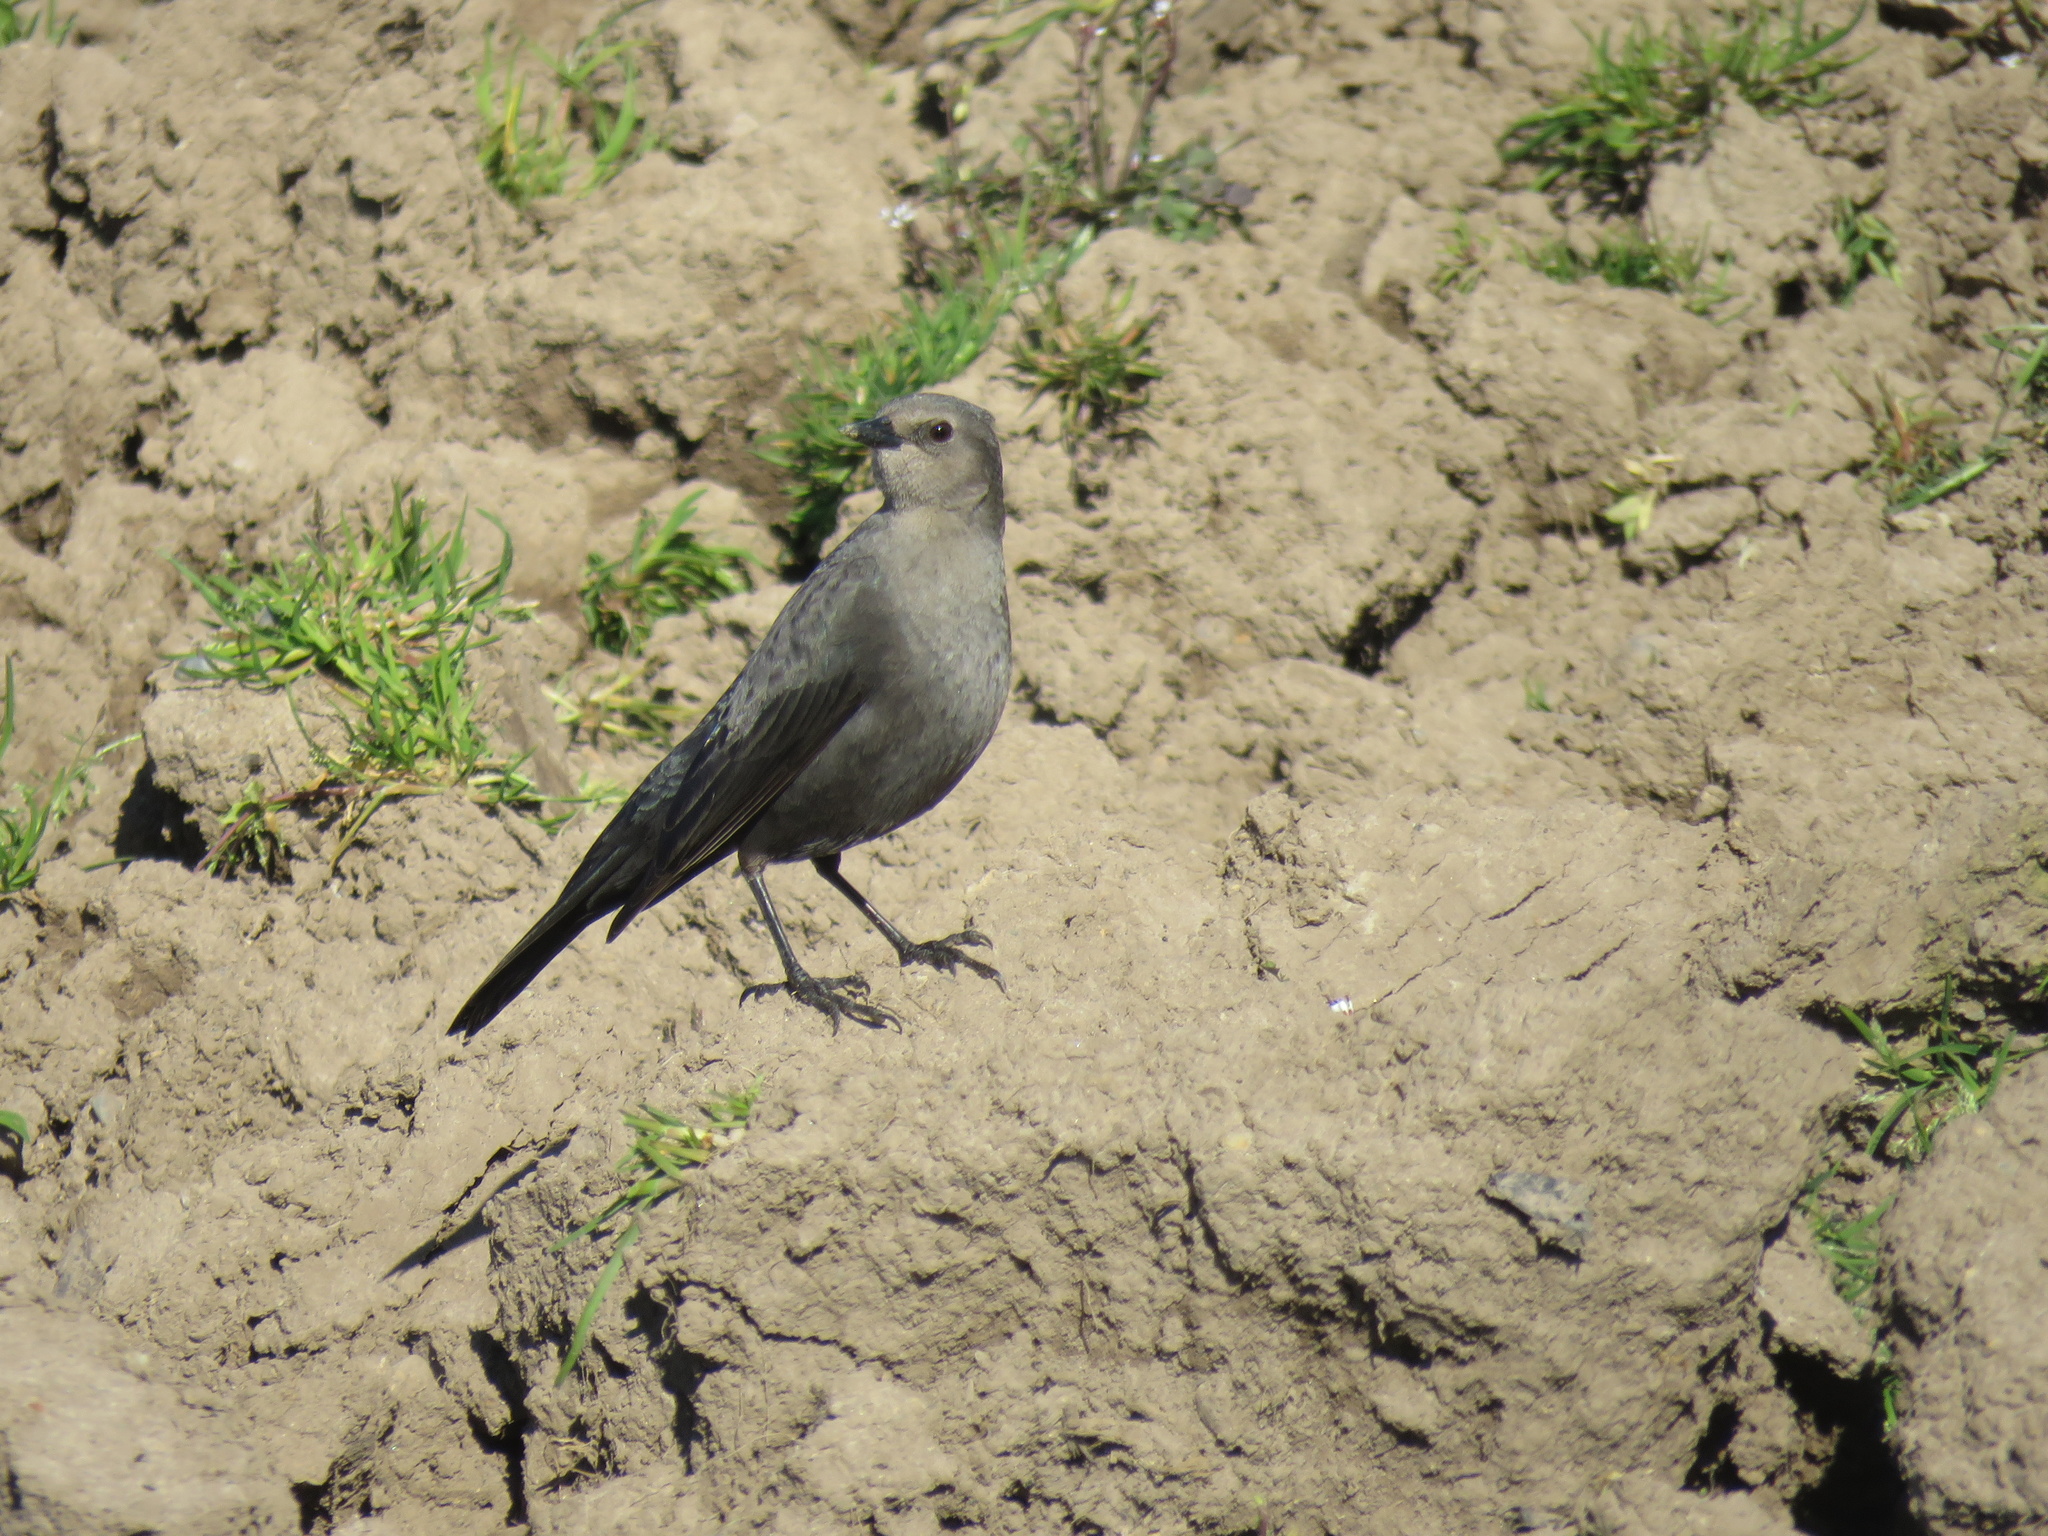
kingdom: Animalia
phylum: Chordata
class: Aves
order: Passeriformes
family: Icteridae
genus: Euphagus
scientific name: Euphagus cyanocephalus
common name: Brewer's blackbird
